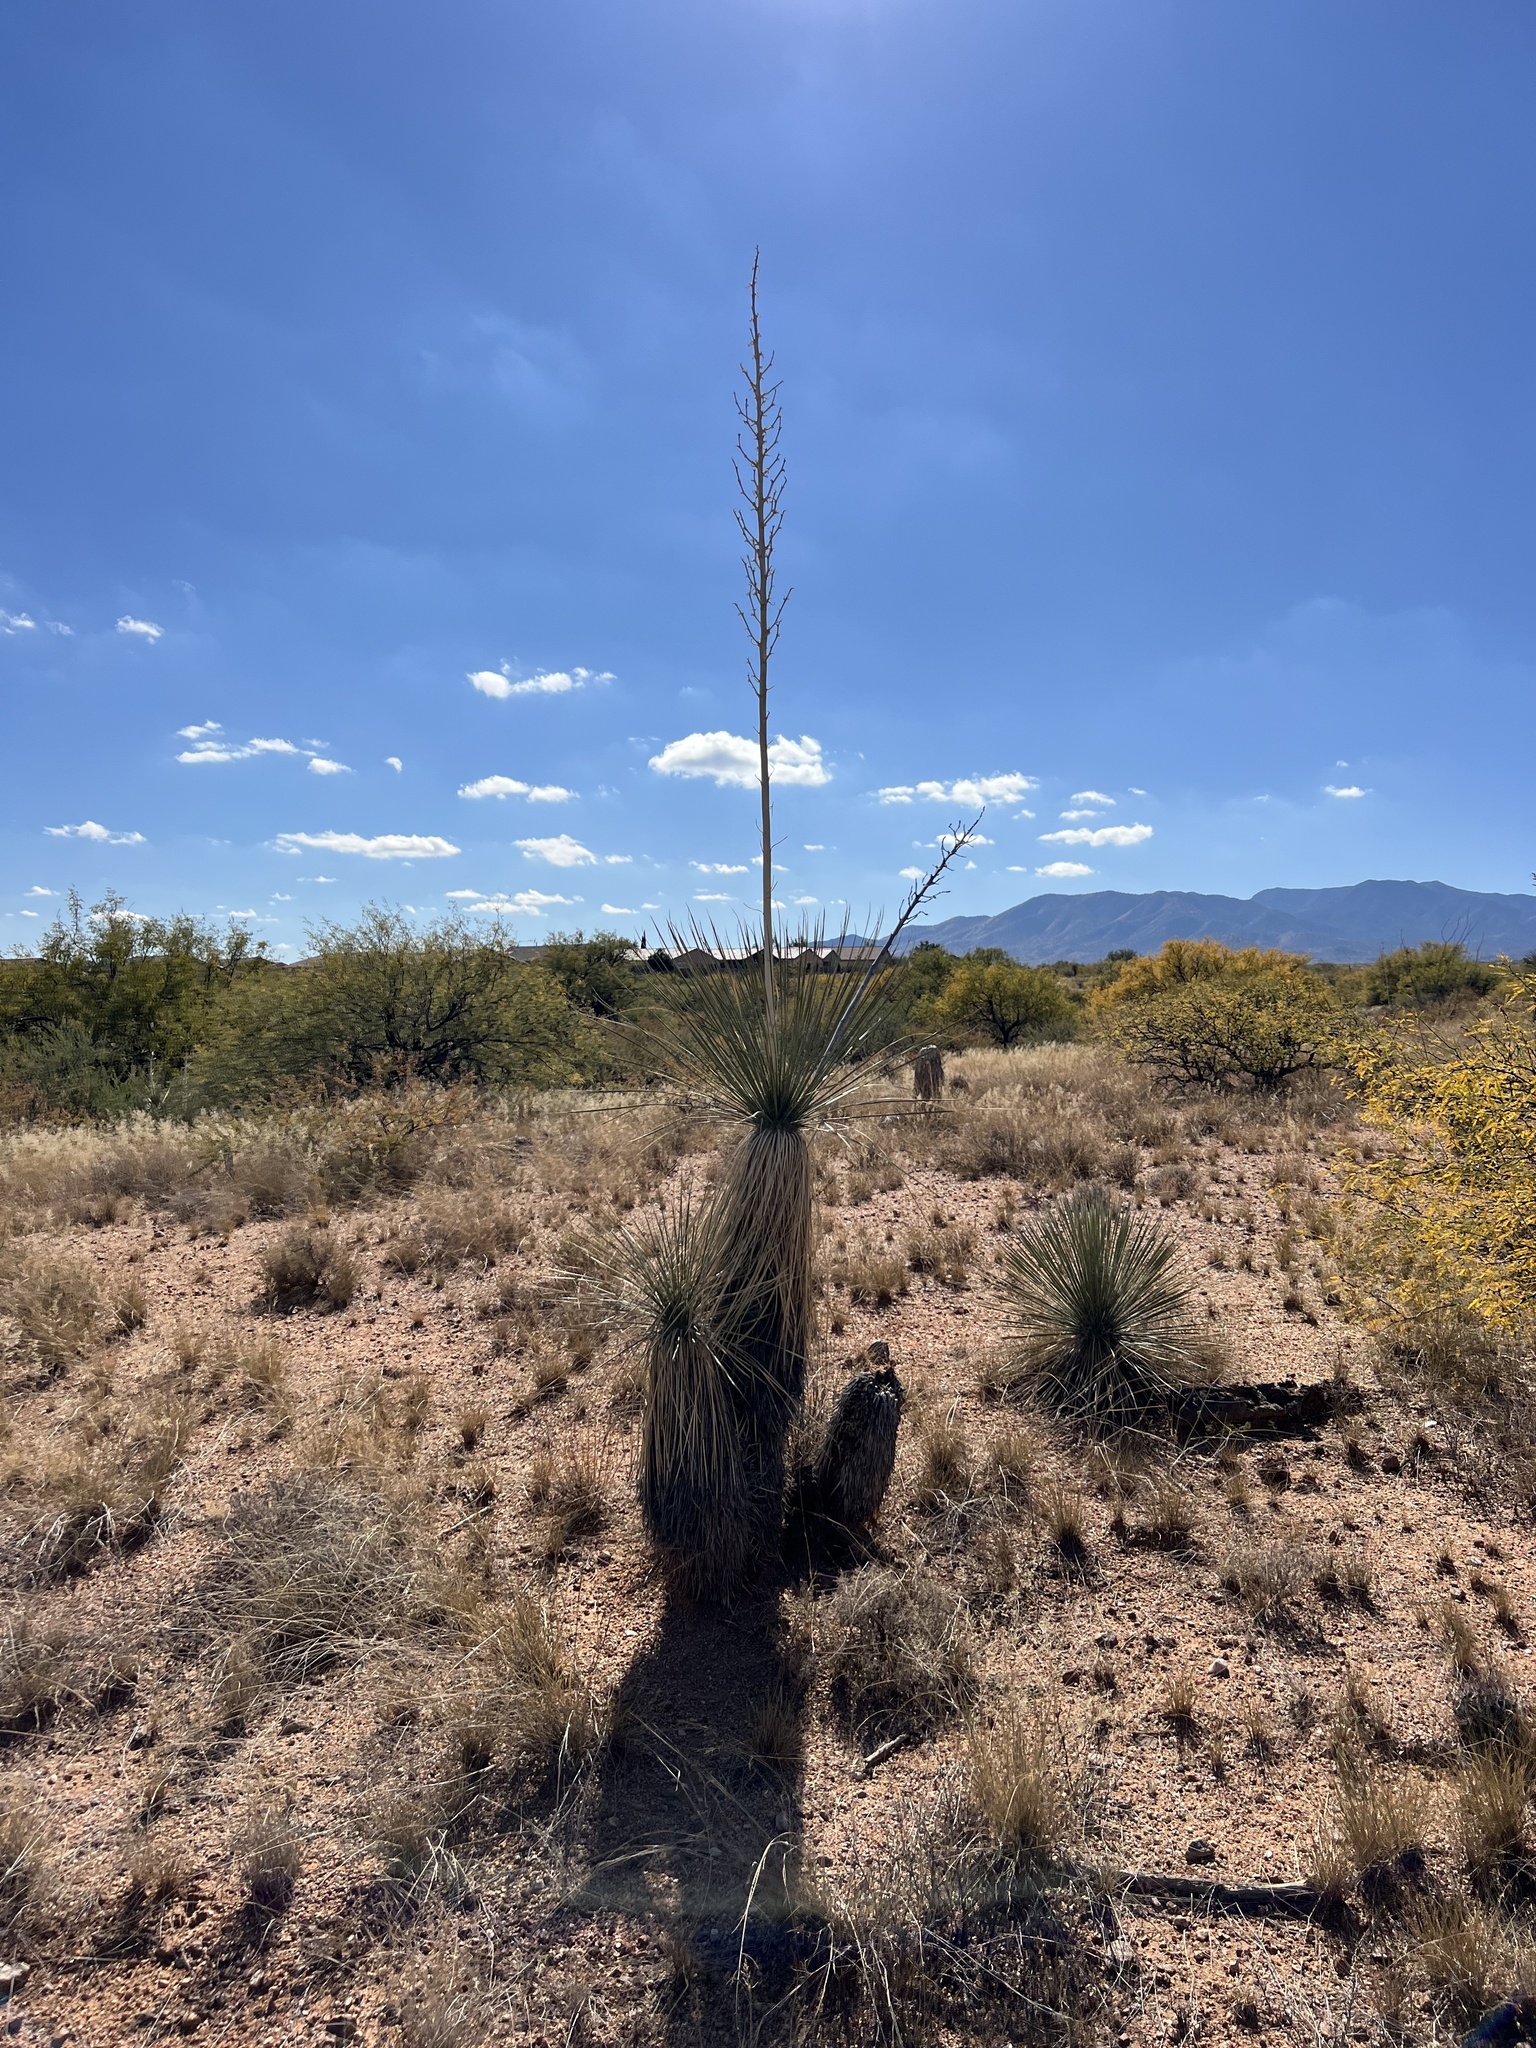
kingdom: Plantae
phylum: Tracheophyta
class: Liliopsida
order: Asparagales
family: Asparagaceae
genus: Yucca
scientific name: Yucca elata
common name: Palmella
